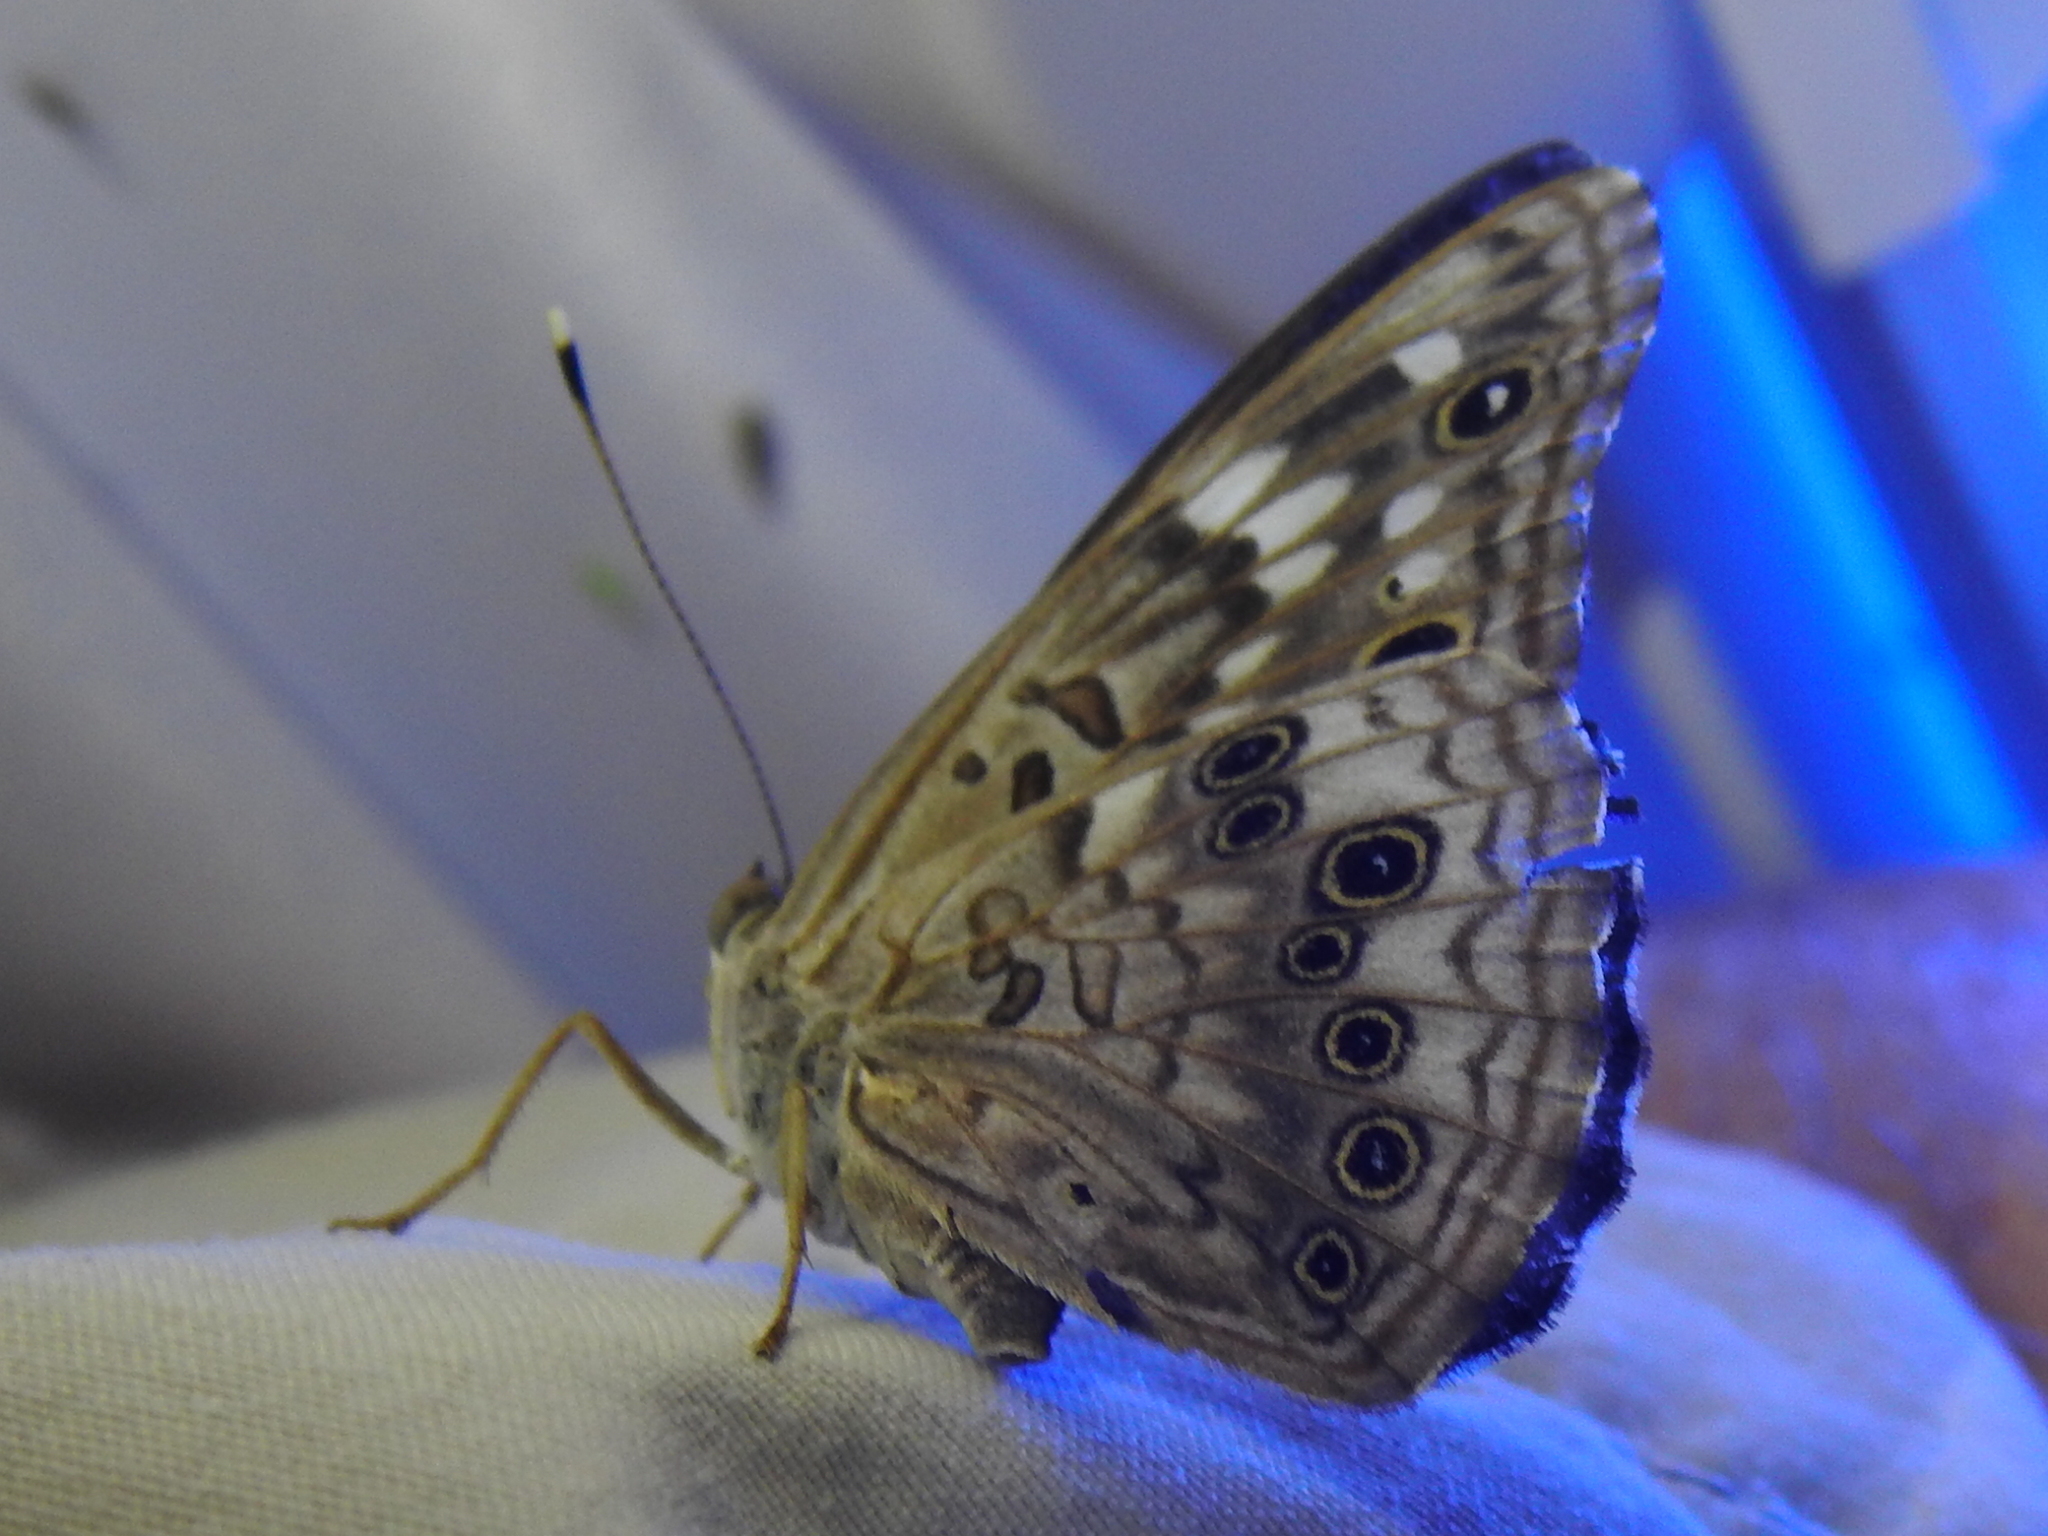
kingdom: Animalia
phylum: Arthropoda
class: Insecta
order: Lepidoptera
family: Nymphalidae
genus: Asterocampa
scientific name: Asterocampa celtis
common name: Hackberry emperor
